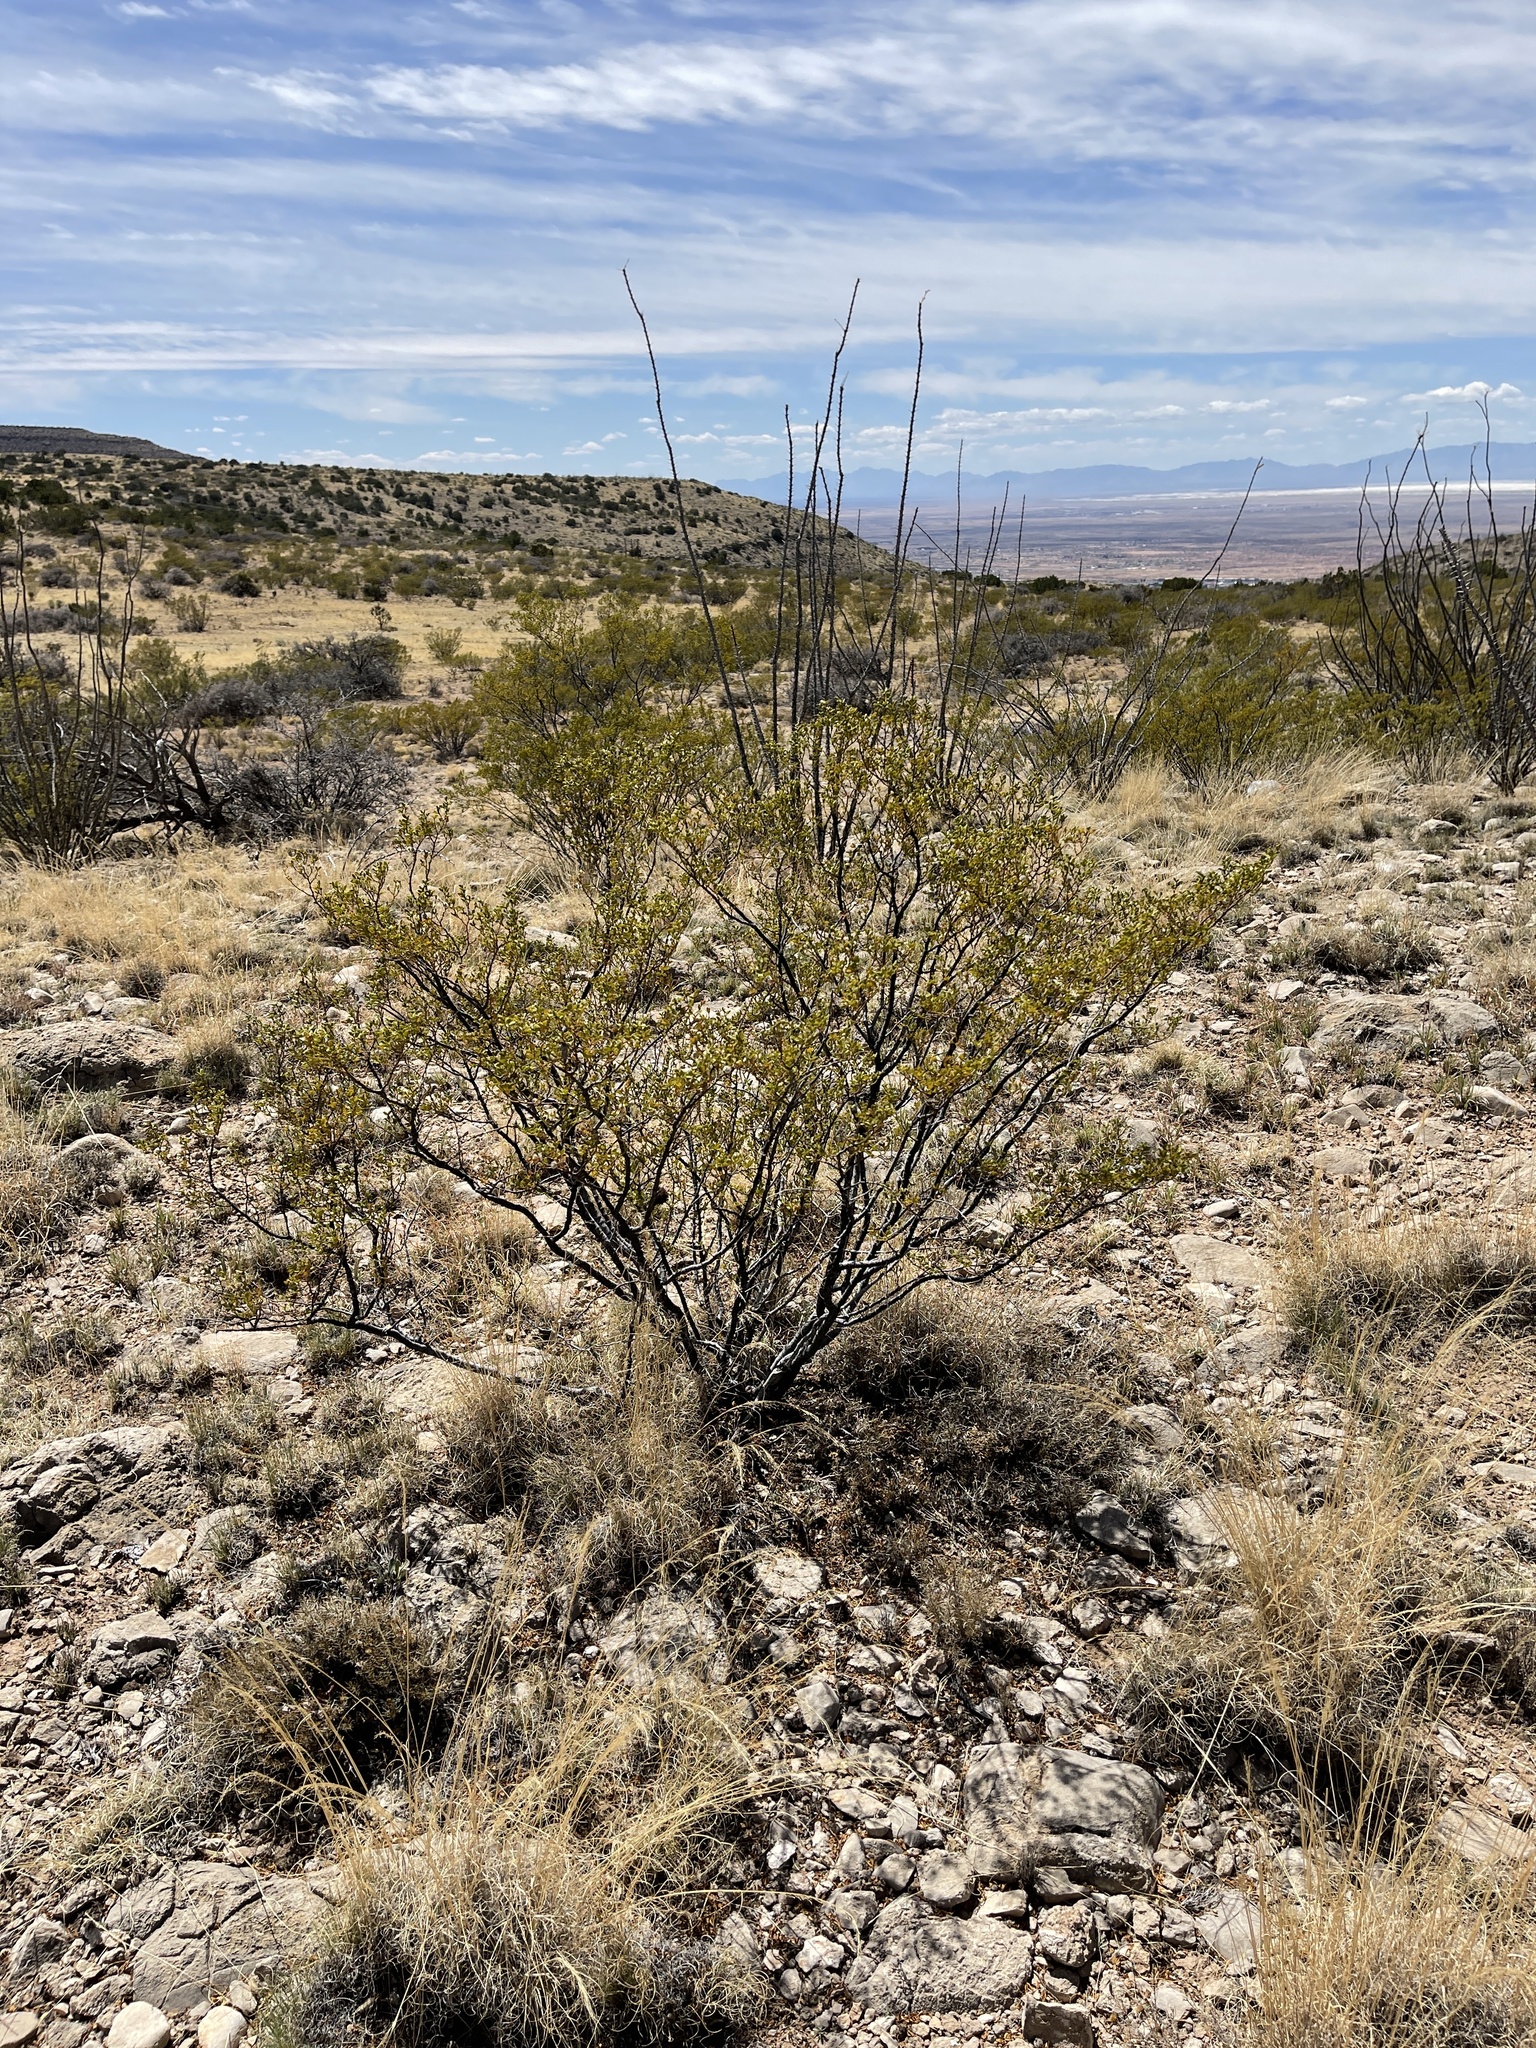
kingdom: Plantae
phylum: Tracheophyta
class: Magnoliopsida
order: Zygophyllales
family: Zygophyllaceae
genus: Larrea
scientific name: Larrea tridentata
